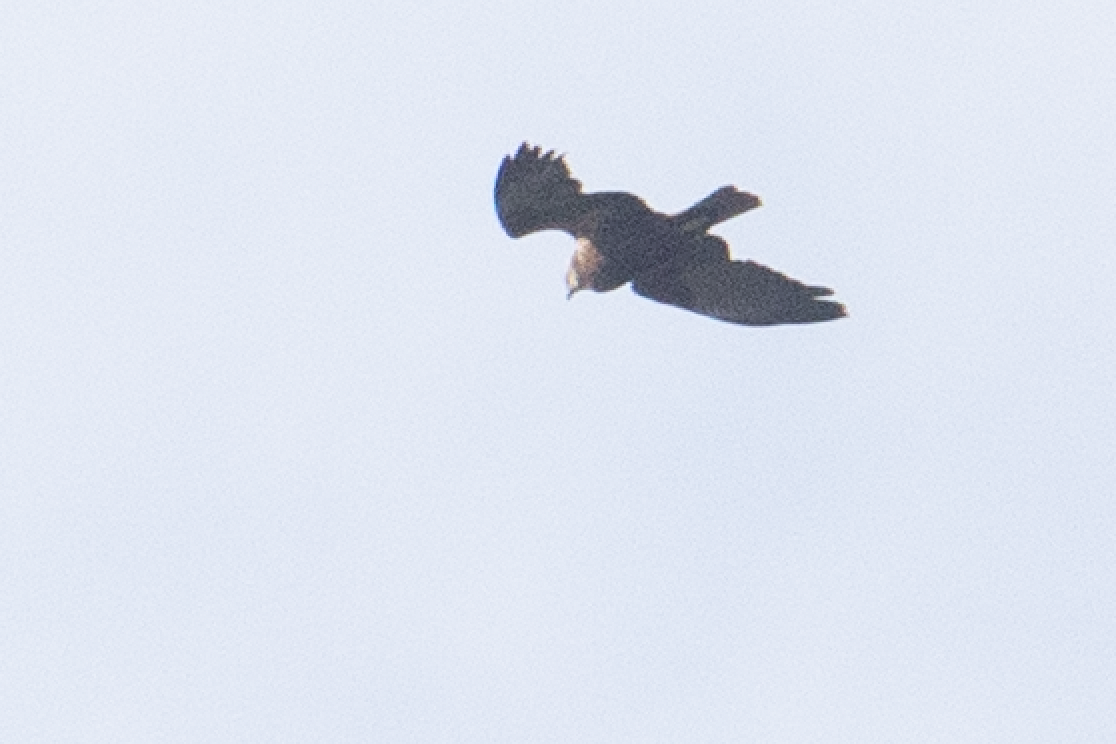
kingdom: Animalia
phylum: Chordata
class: Aves
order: Accipitriformes
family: Accipitridae
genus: Circus
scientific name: Circus aeruginosus
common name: Western marsh harrier
